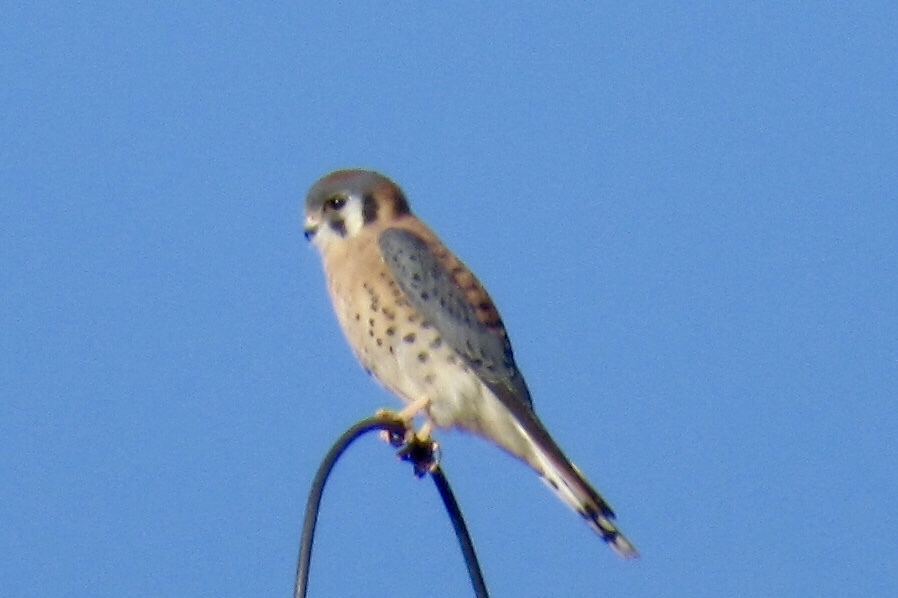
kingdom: Animalia
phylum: Chordata
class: Aves
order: Falconiformes
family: Falconidae
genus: Falco
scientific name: Falco sparverius
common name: American kestrel
